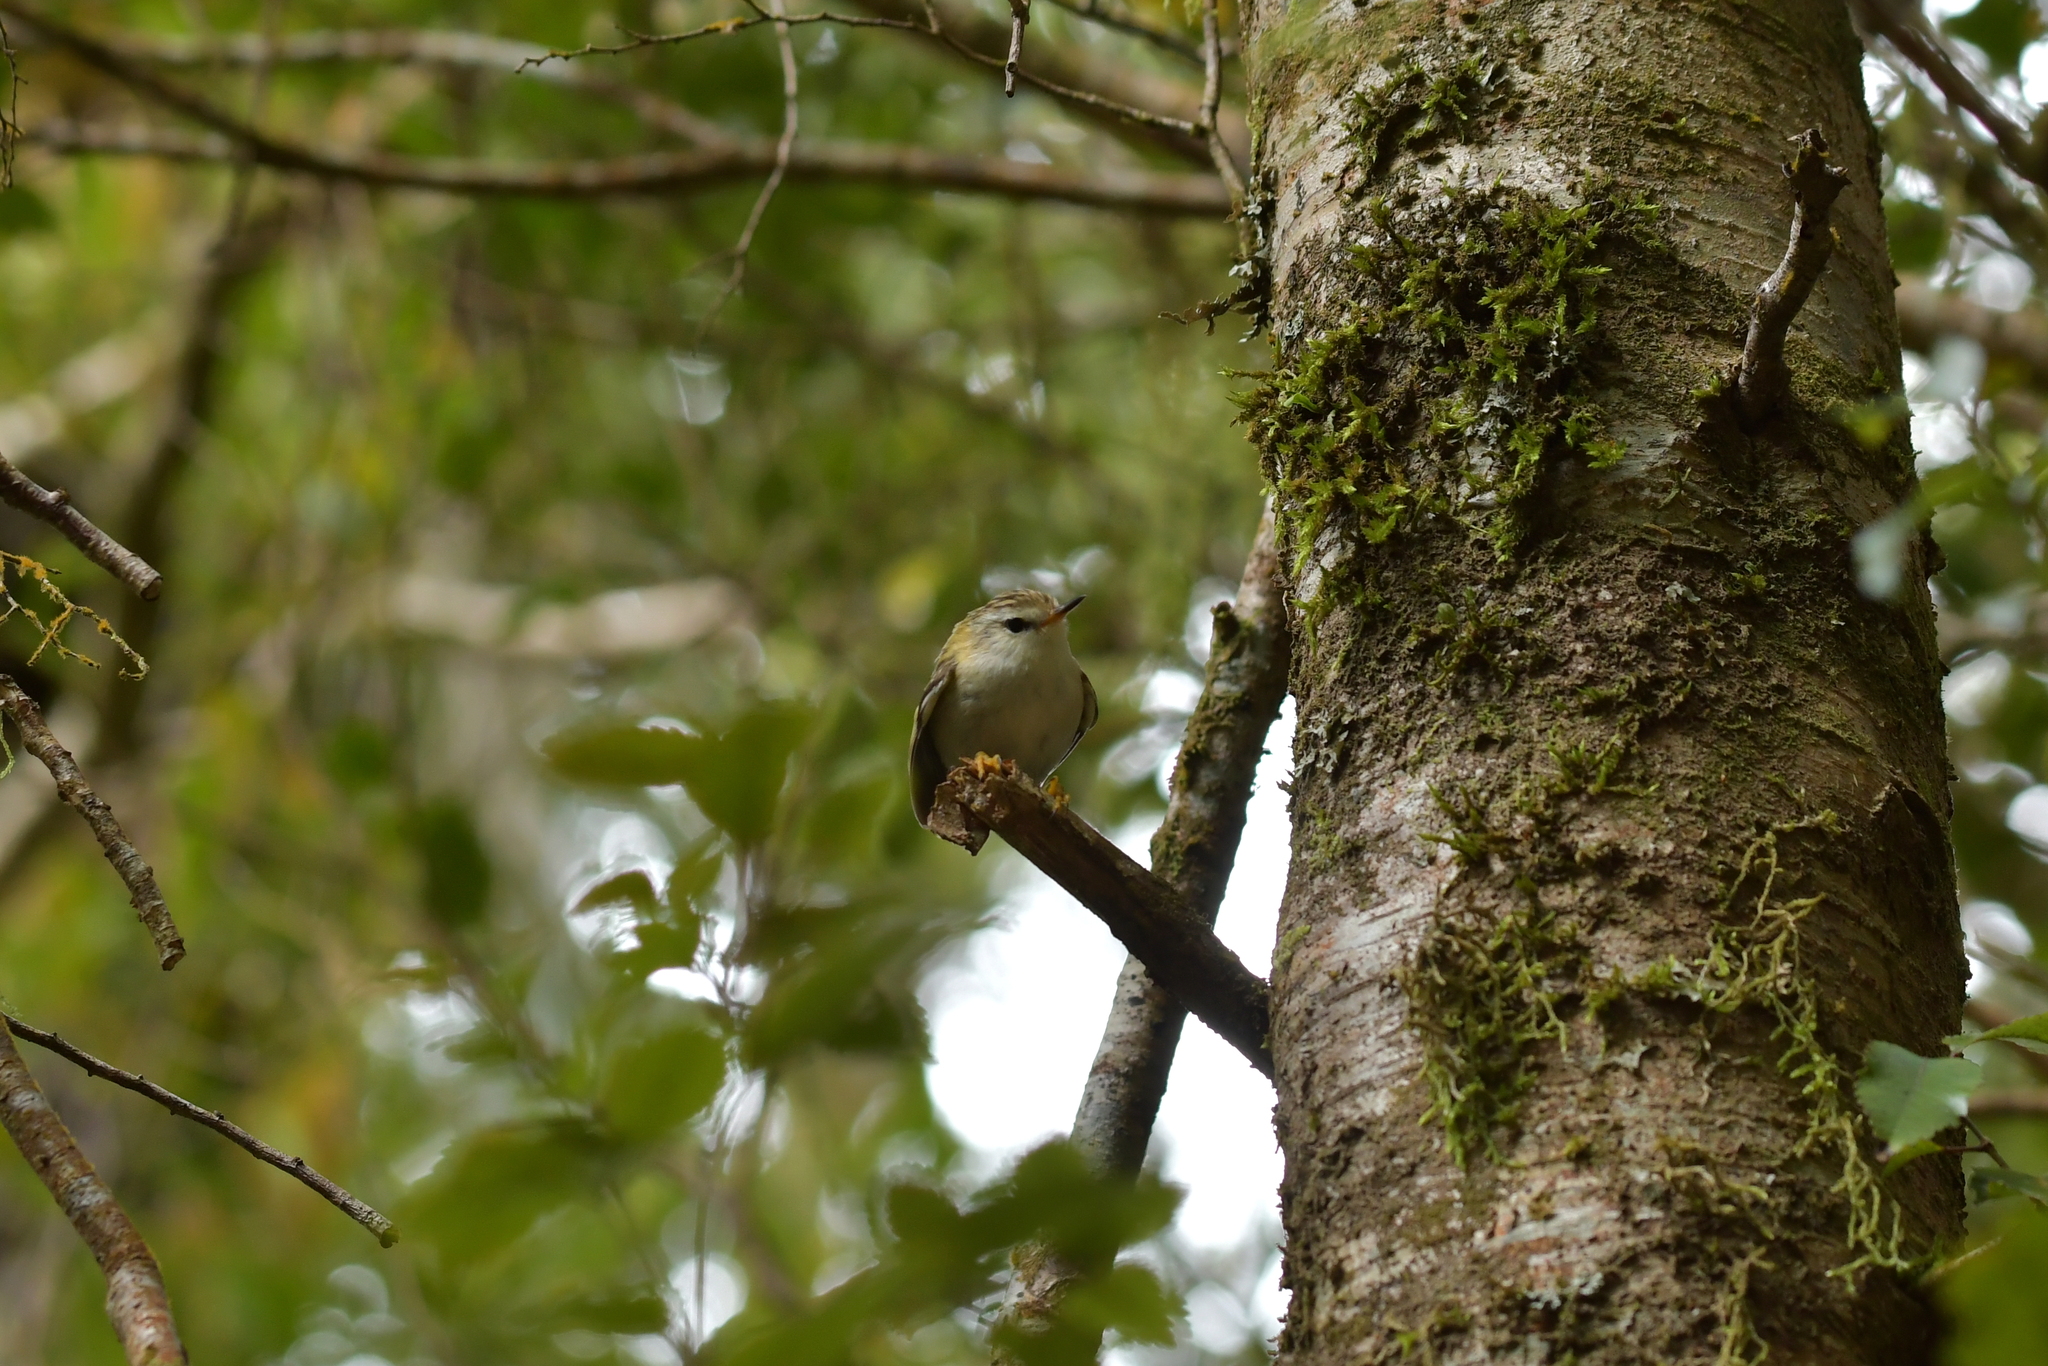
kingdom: Animalia
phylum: Chordata
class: Aves
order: Passeriformes
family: Acanthisittidae
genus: Acanthisitta
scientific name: Acanthisitta chloris
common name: Rifleman
